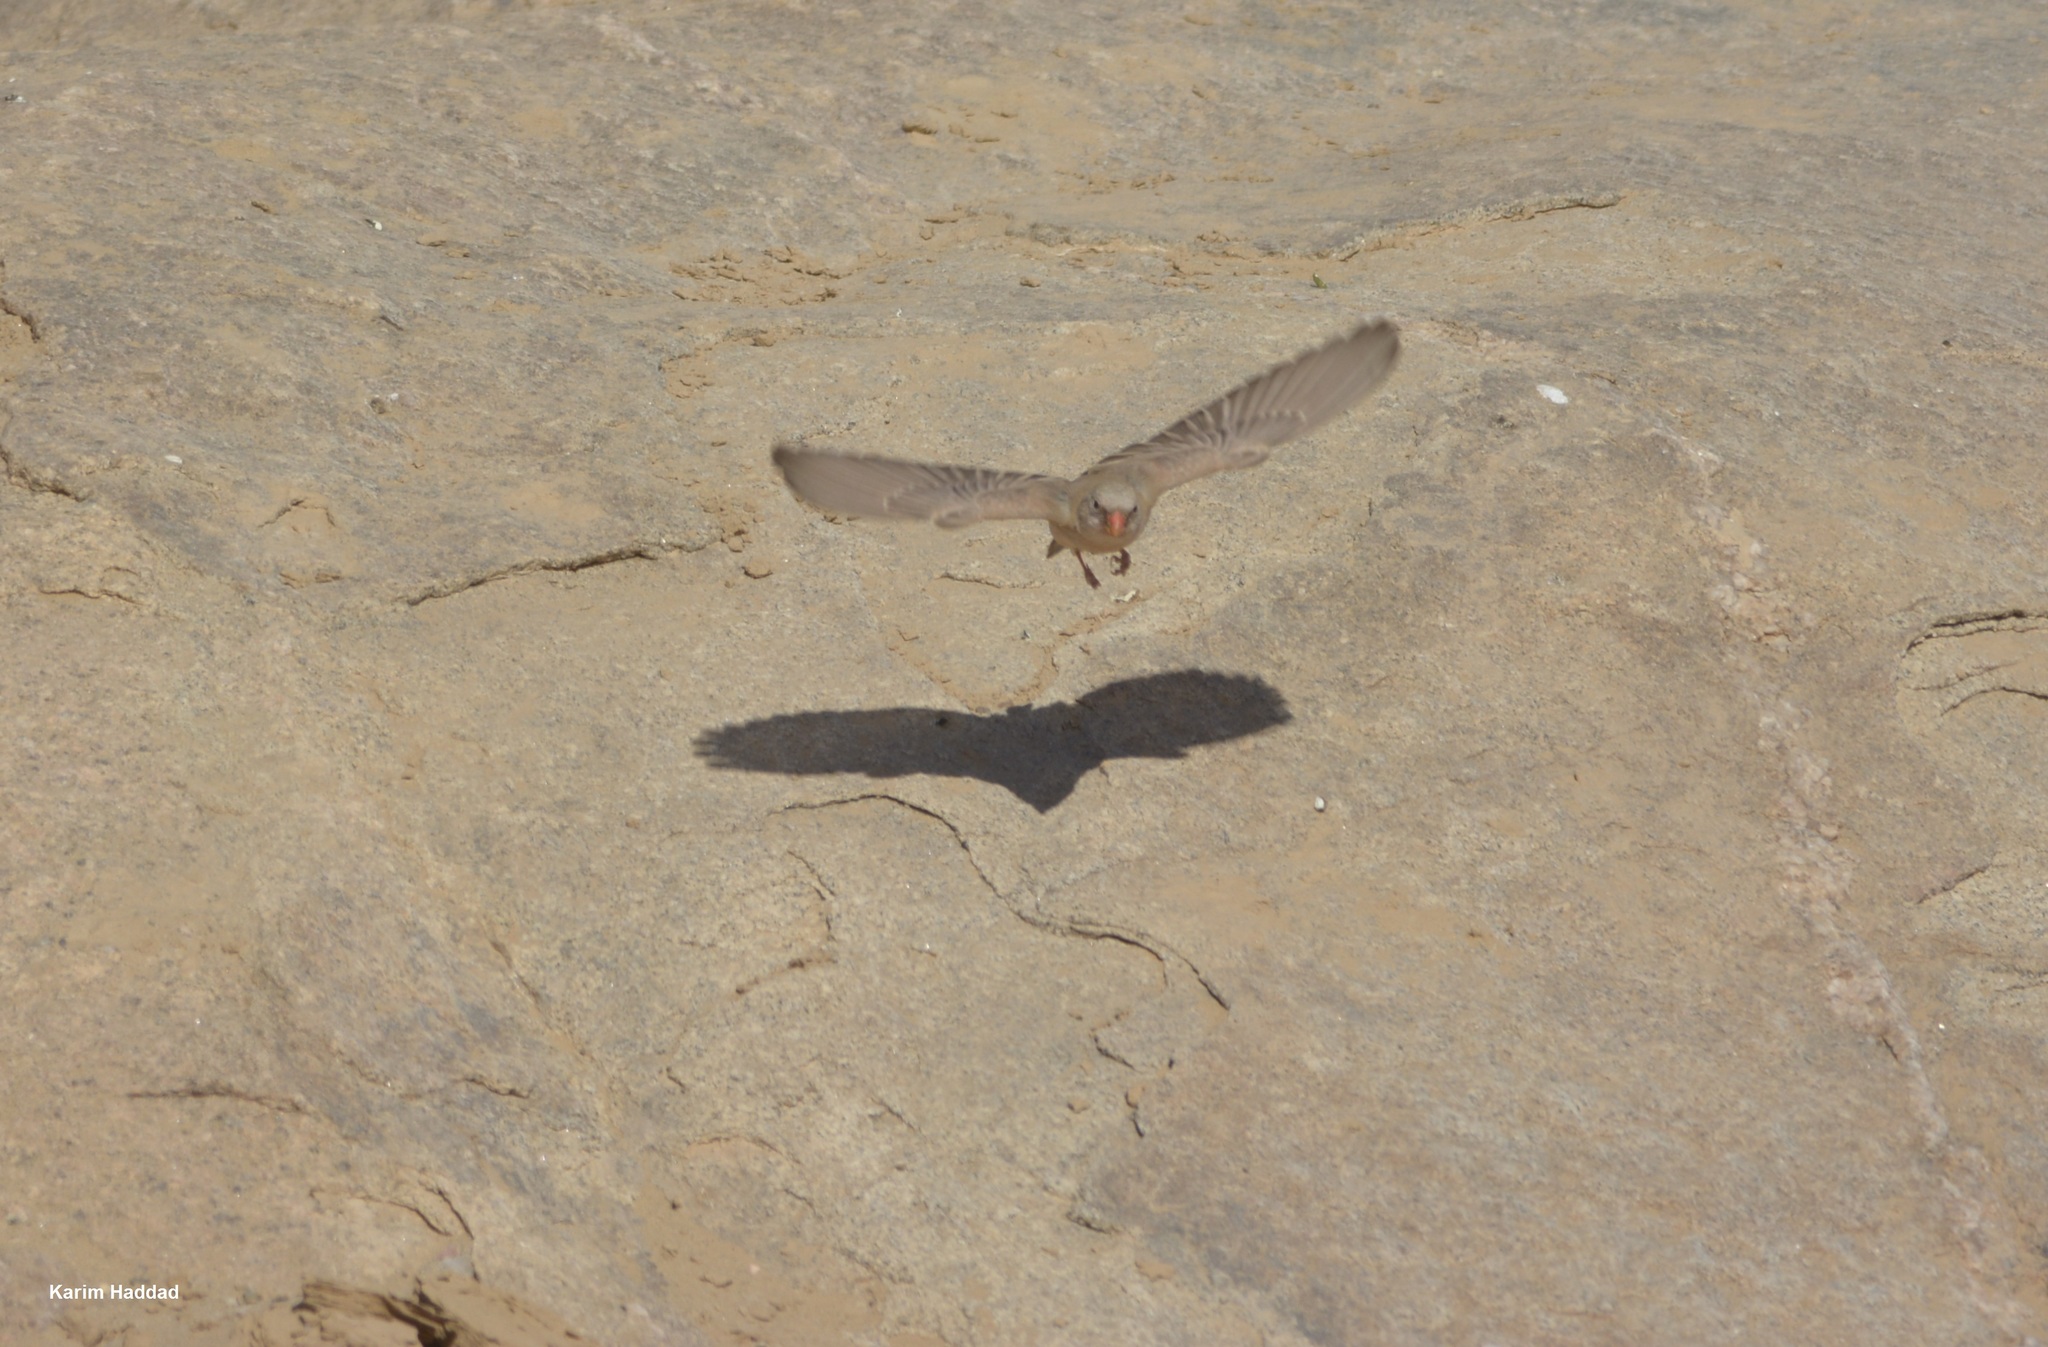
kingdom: Animalia
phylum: Chordata
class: Aves
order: Passeriformes
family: Fringillidae
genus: Bucanetes
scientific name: Bucanetes githagineus
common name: Trumpeter finch
